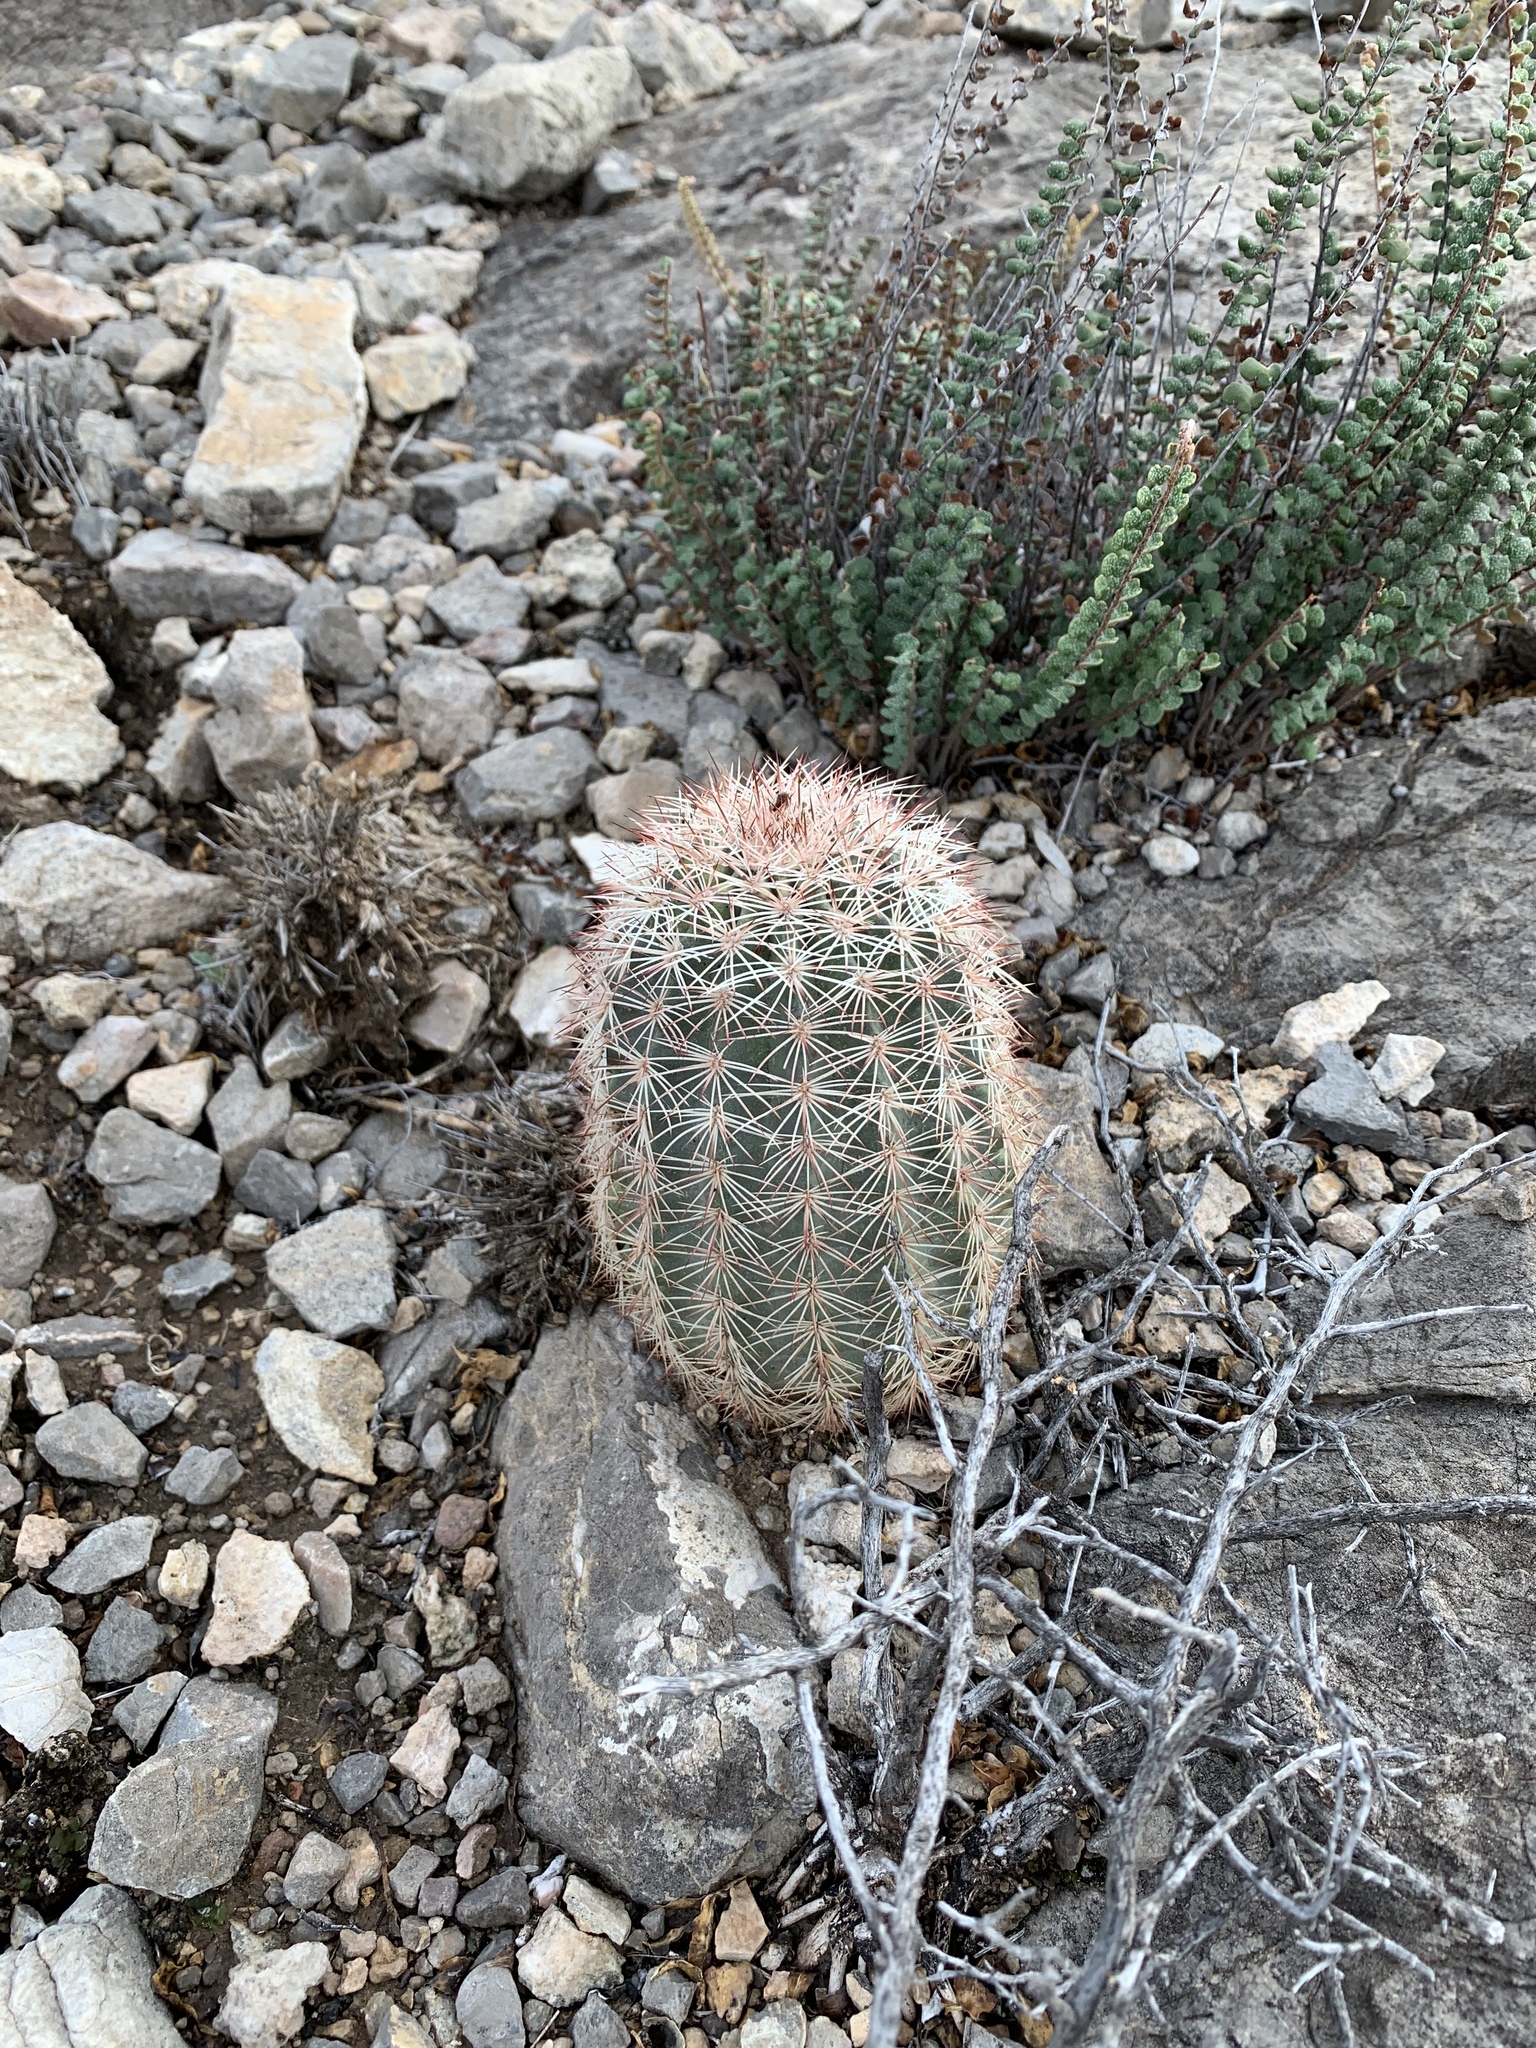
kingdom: Plantae
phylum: Tracheophyta
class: Magnoliopsida
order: Caryophyllales
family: Cactaceae
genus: Echinocereus
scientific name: Echinocereus dasyacanthus
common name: Spiny hedgehog cactus
